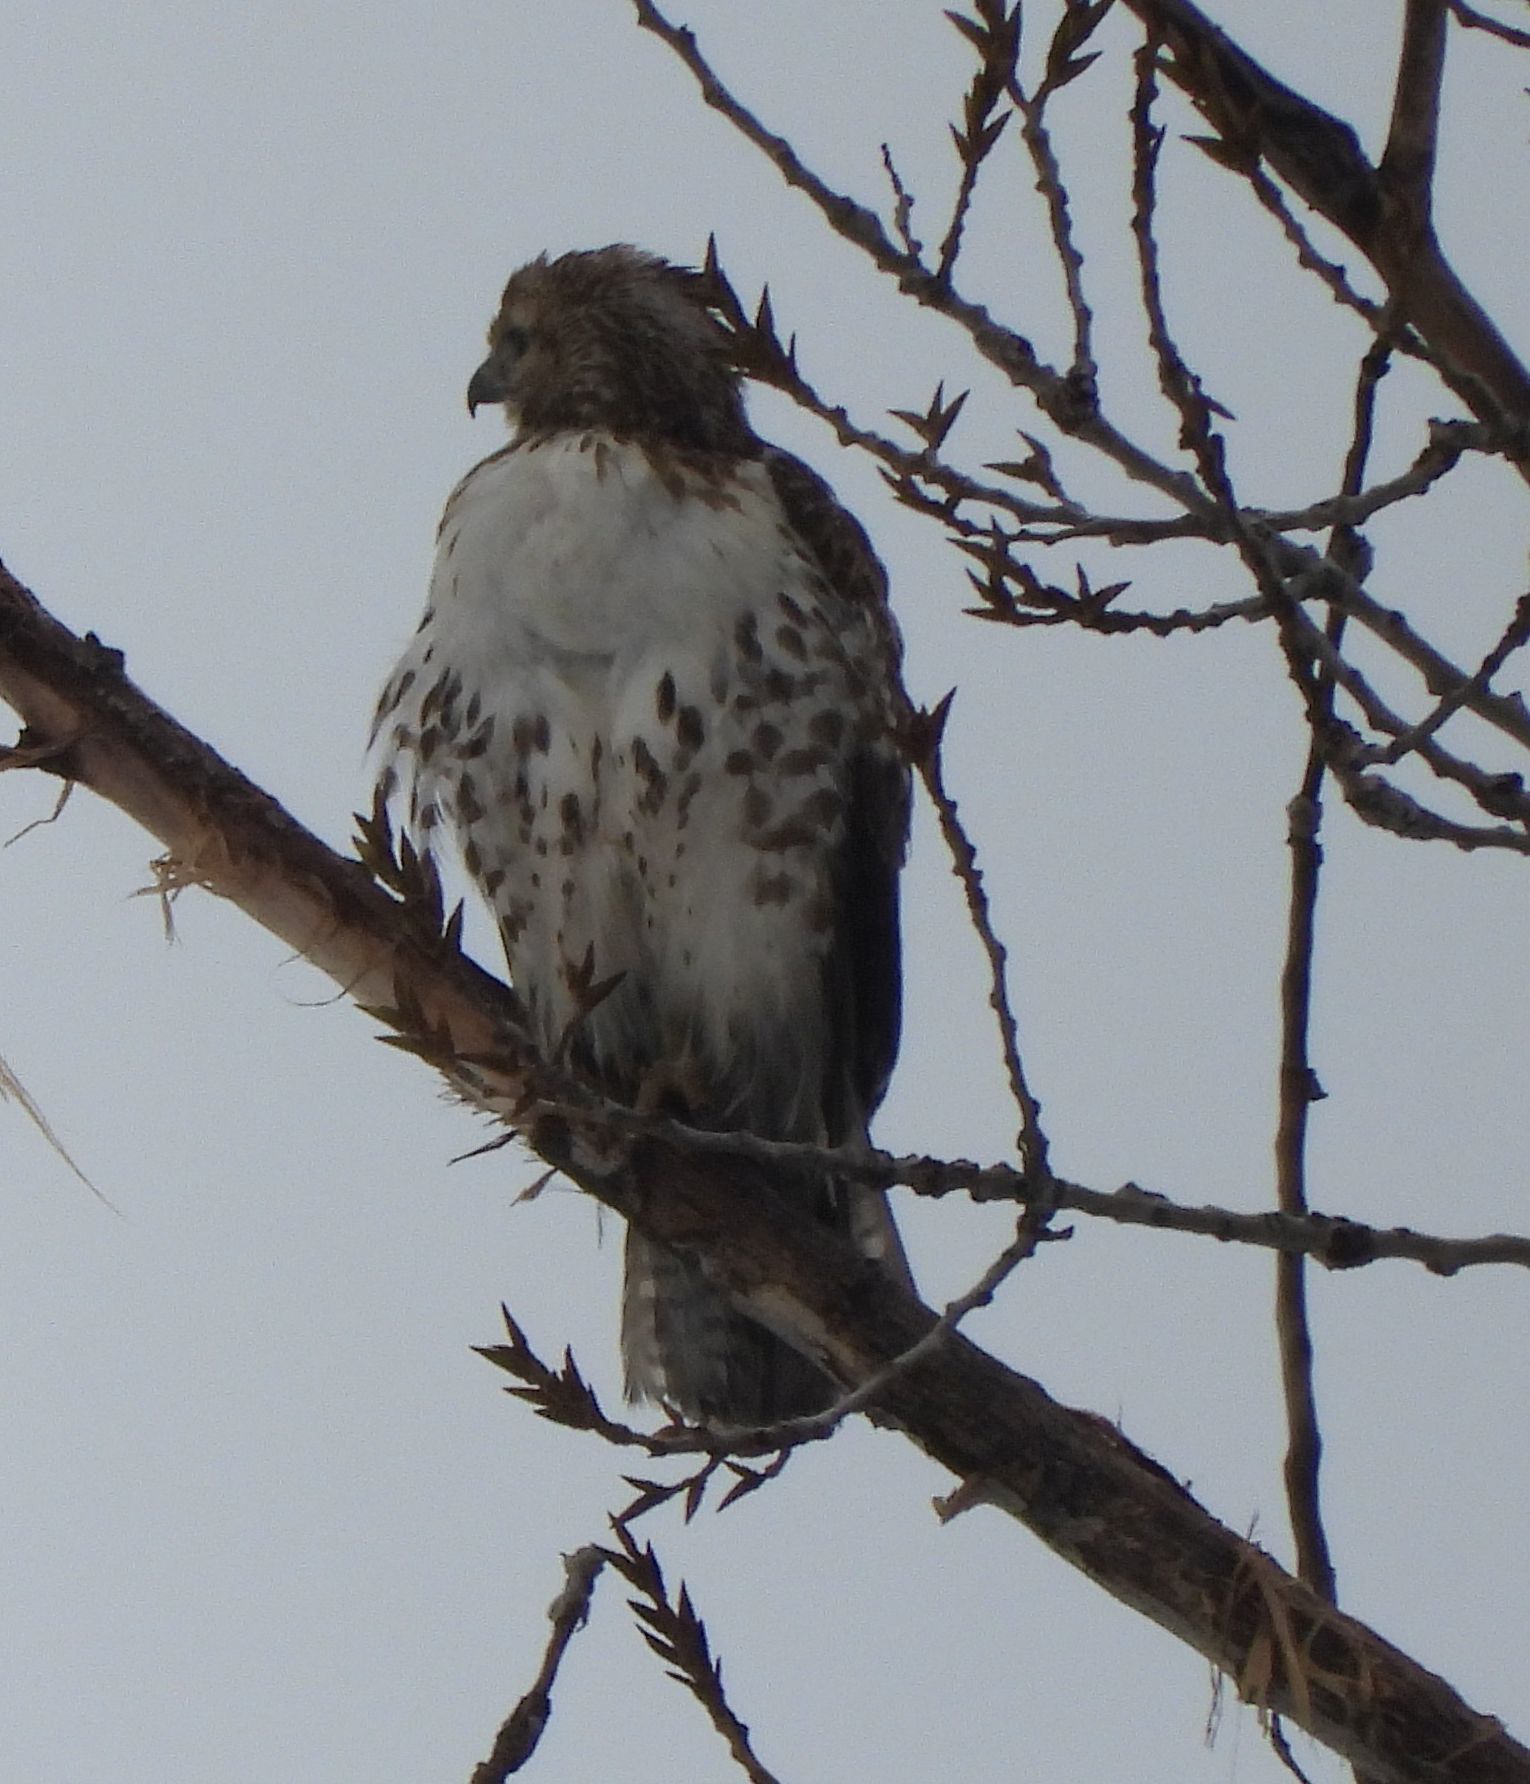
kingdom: Animalia
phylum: Chordata
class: Aves
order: Accipitriformes
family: Accipitridae
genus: Buteo
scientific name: Buteo jamaicensis
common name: Red-tailed hawk
